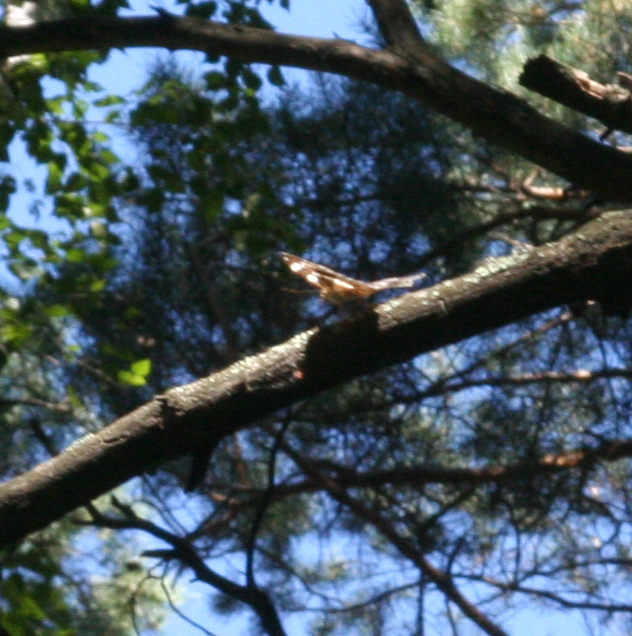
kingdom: Animalia
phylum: Arthropoda
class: Insecta
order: Lepidoptera
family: Nymphalidae
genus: Damora
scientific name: Damora sagana
